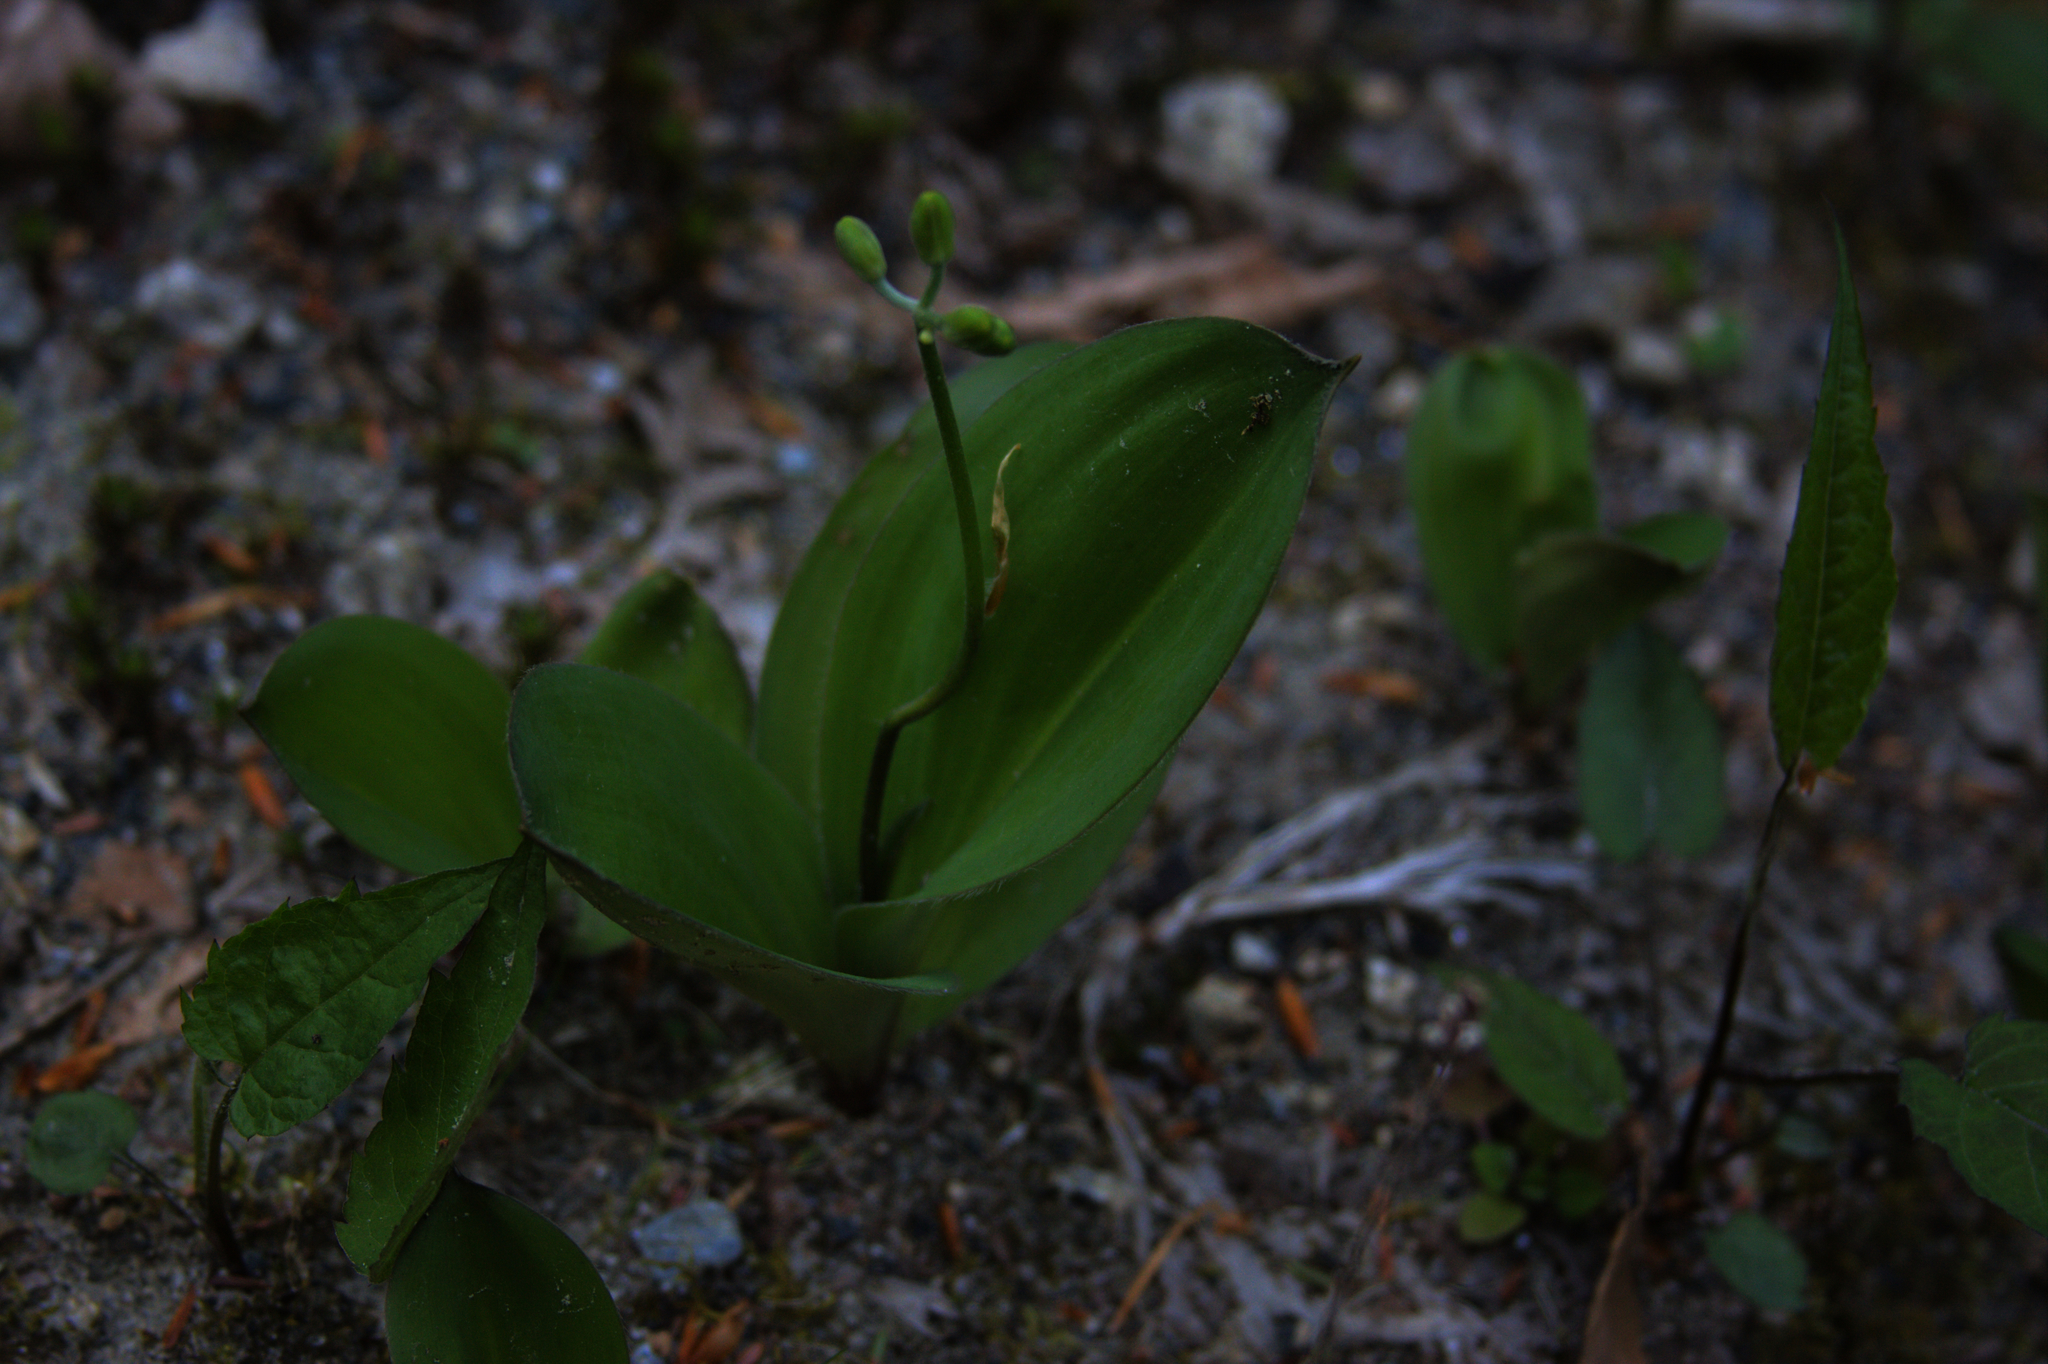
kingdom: Plantae
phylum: Tracheophyta
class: Liliopsida
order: Liliales
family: Liliaceae
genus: Clintonia
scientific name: Clintonia borealis
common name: Yellow clintonia
